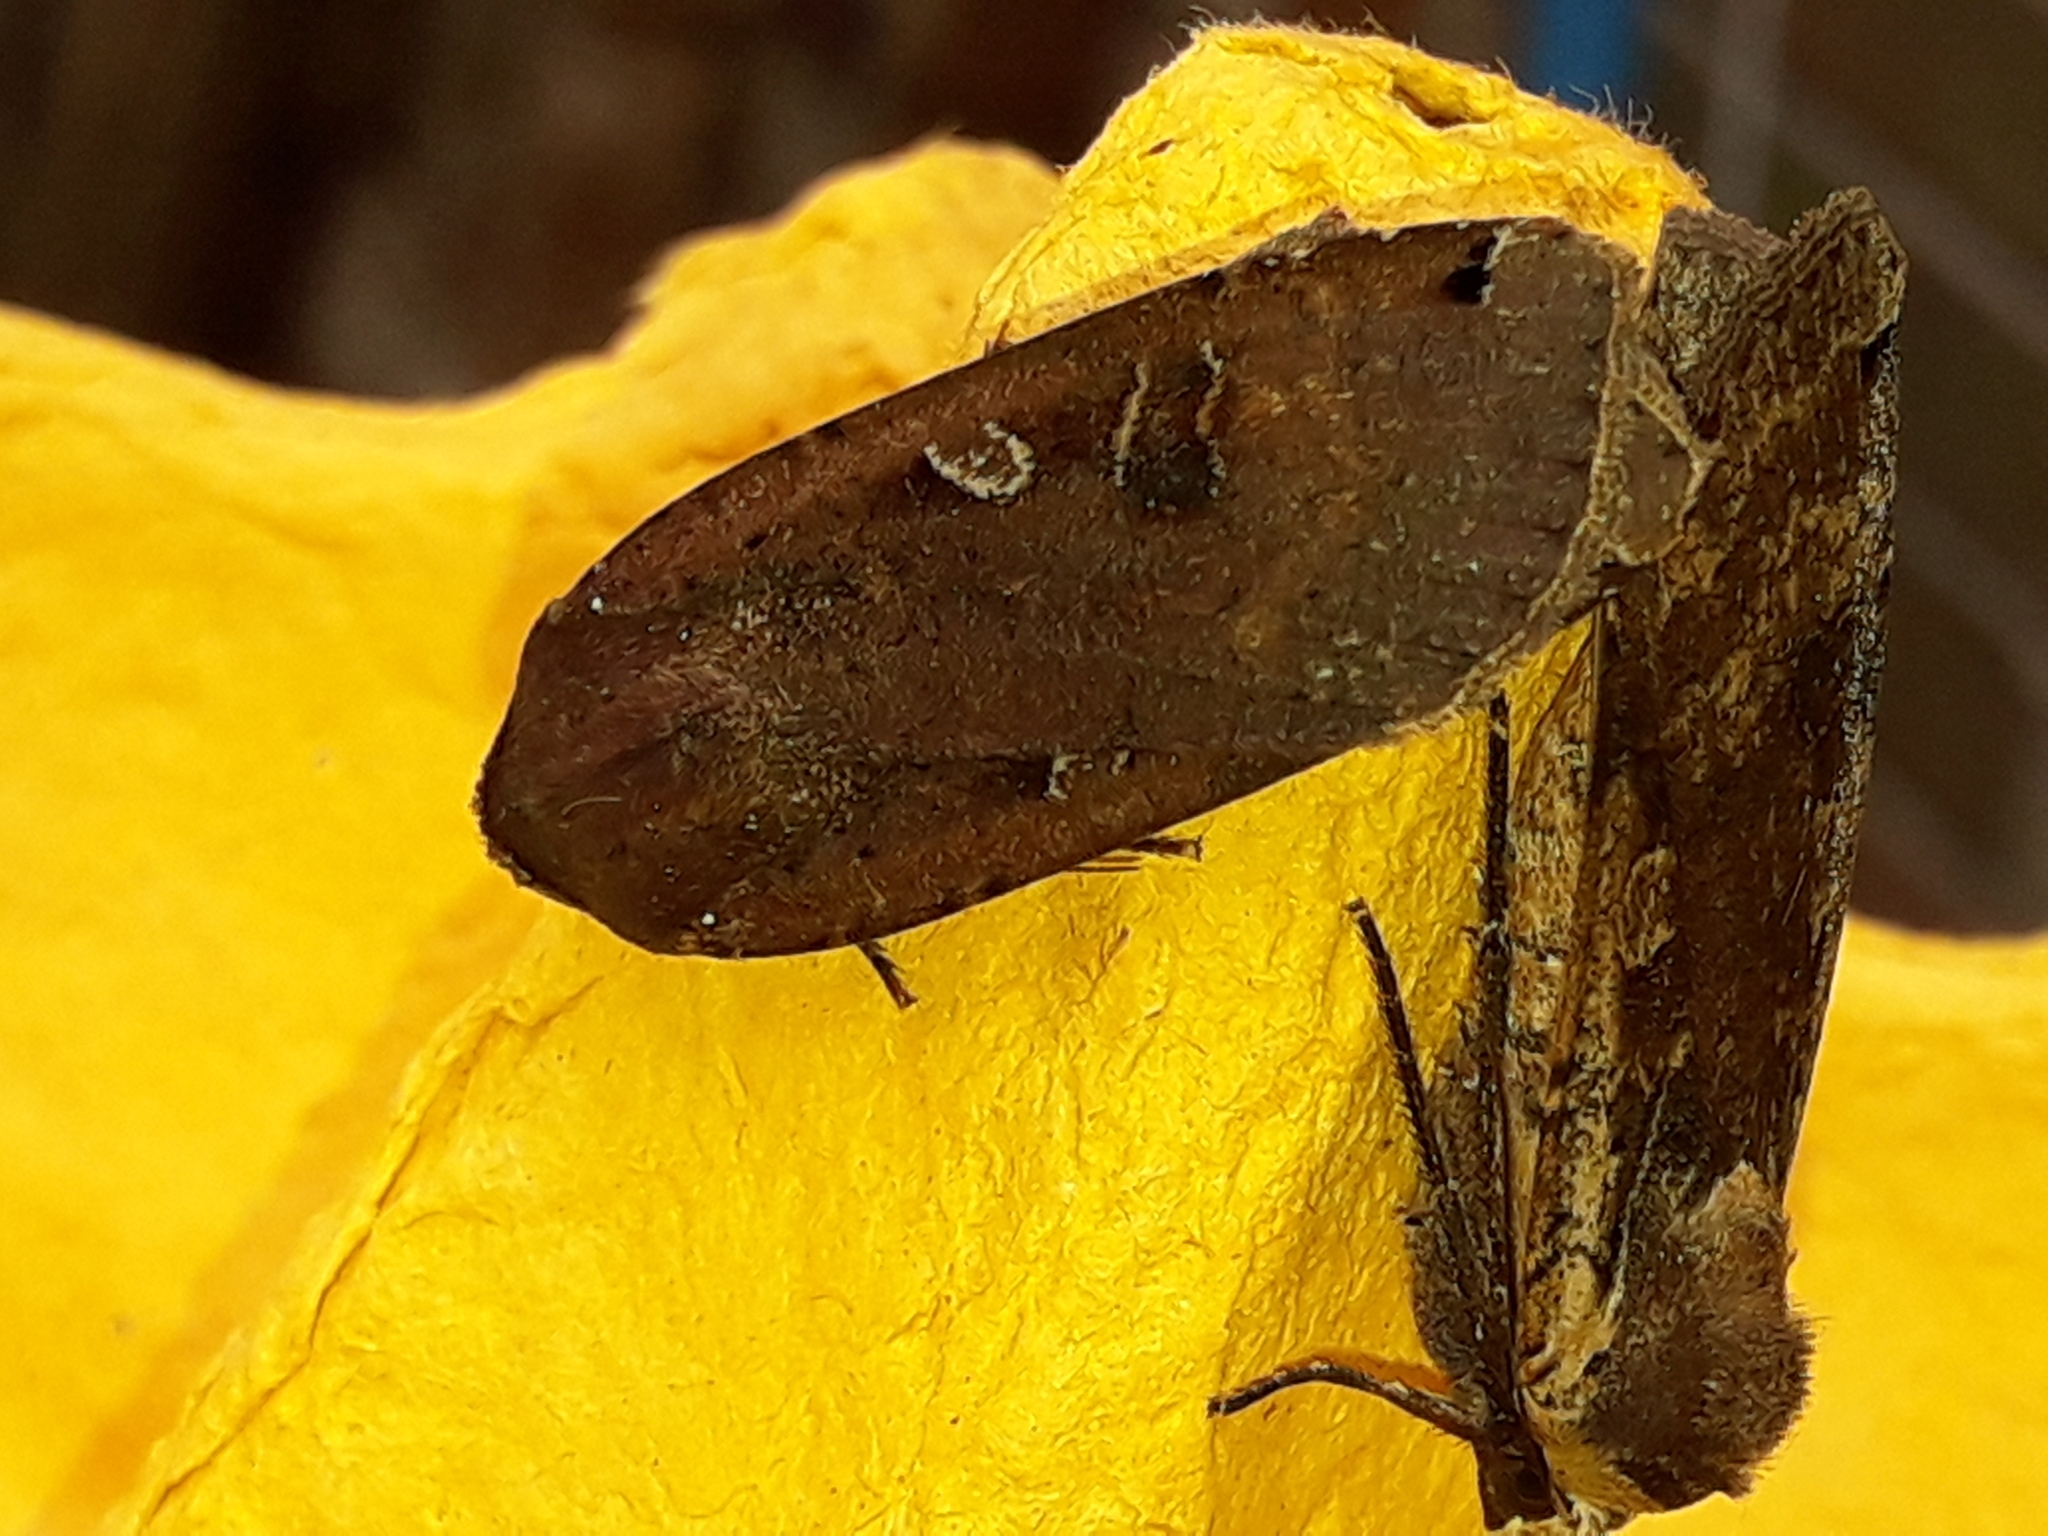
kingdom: Animalia
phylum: Arthropoda
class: Insecta
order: Lepidoptera
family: Noctuidae
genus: Noctua
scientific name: Noctua pronuba
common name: Large yellow underwing
